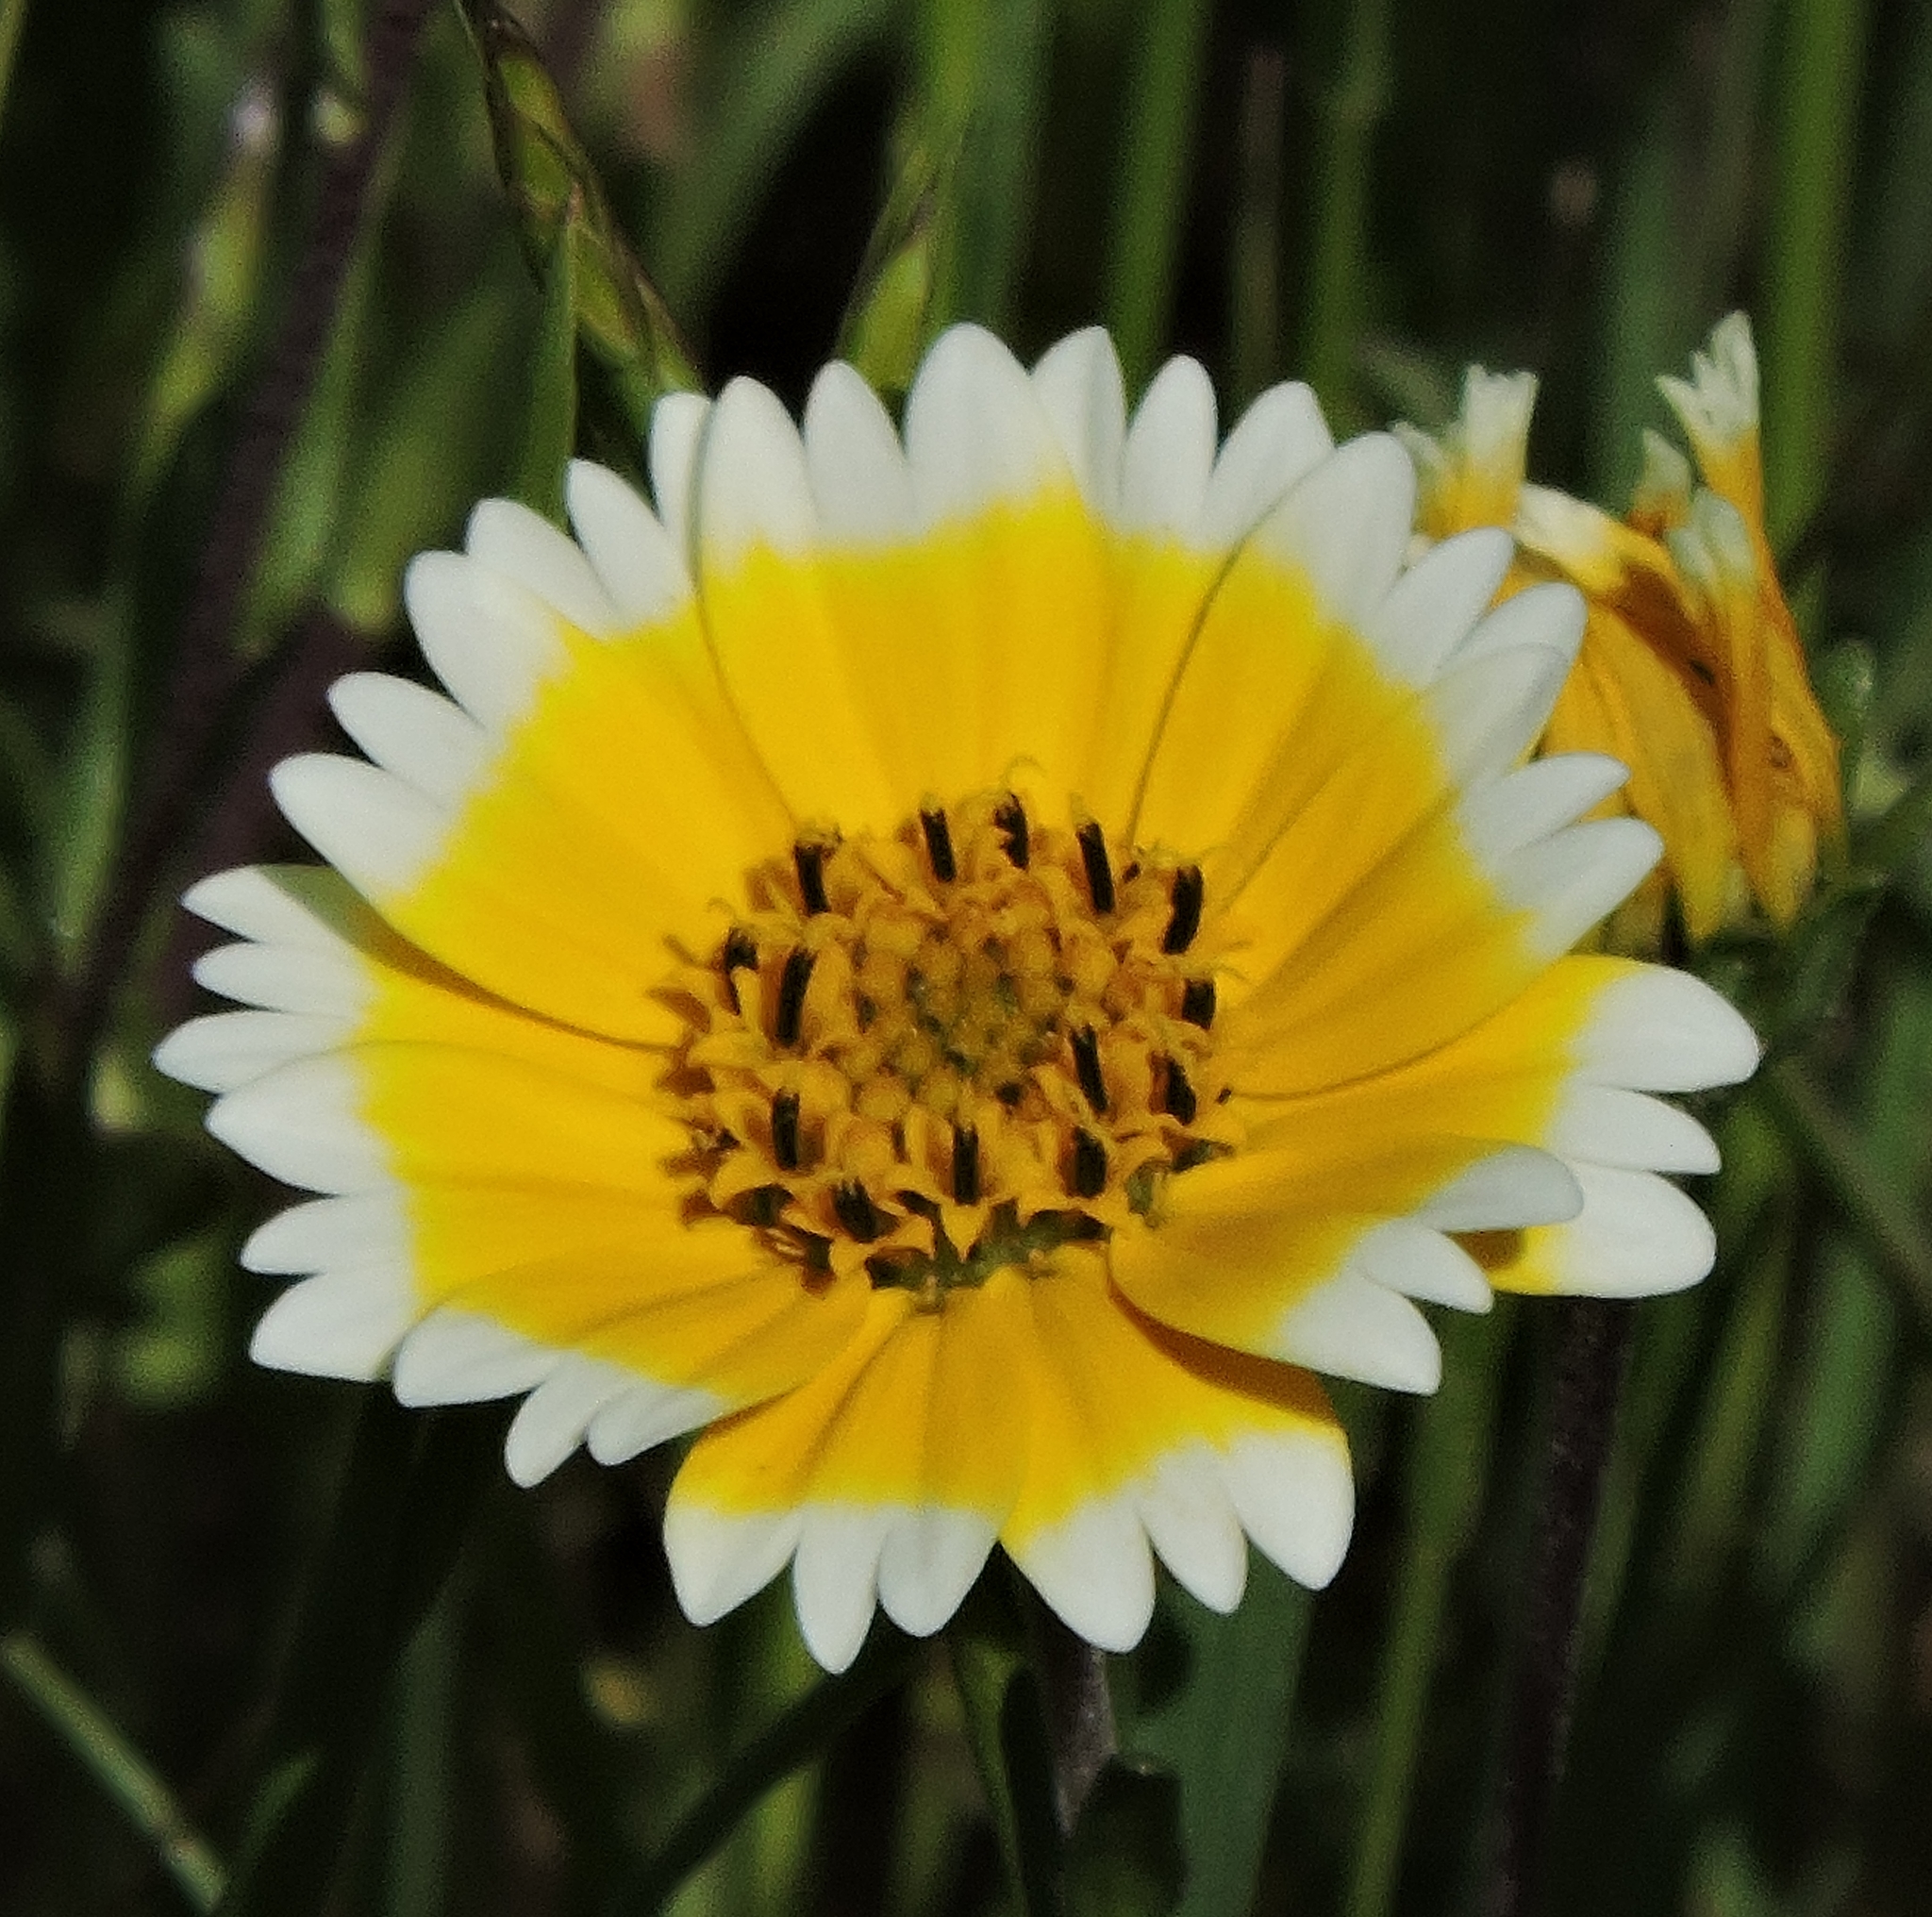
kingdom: Plantae
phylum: Tracheophyta
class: Magnoliopsida
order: Asterales
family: Asteraceae
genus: Layia
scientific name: Layia chrysanthemoides
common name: Smooth layia
